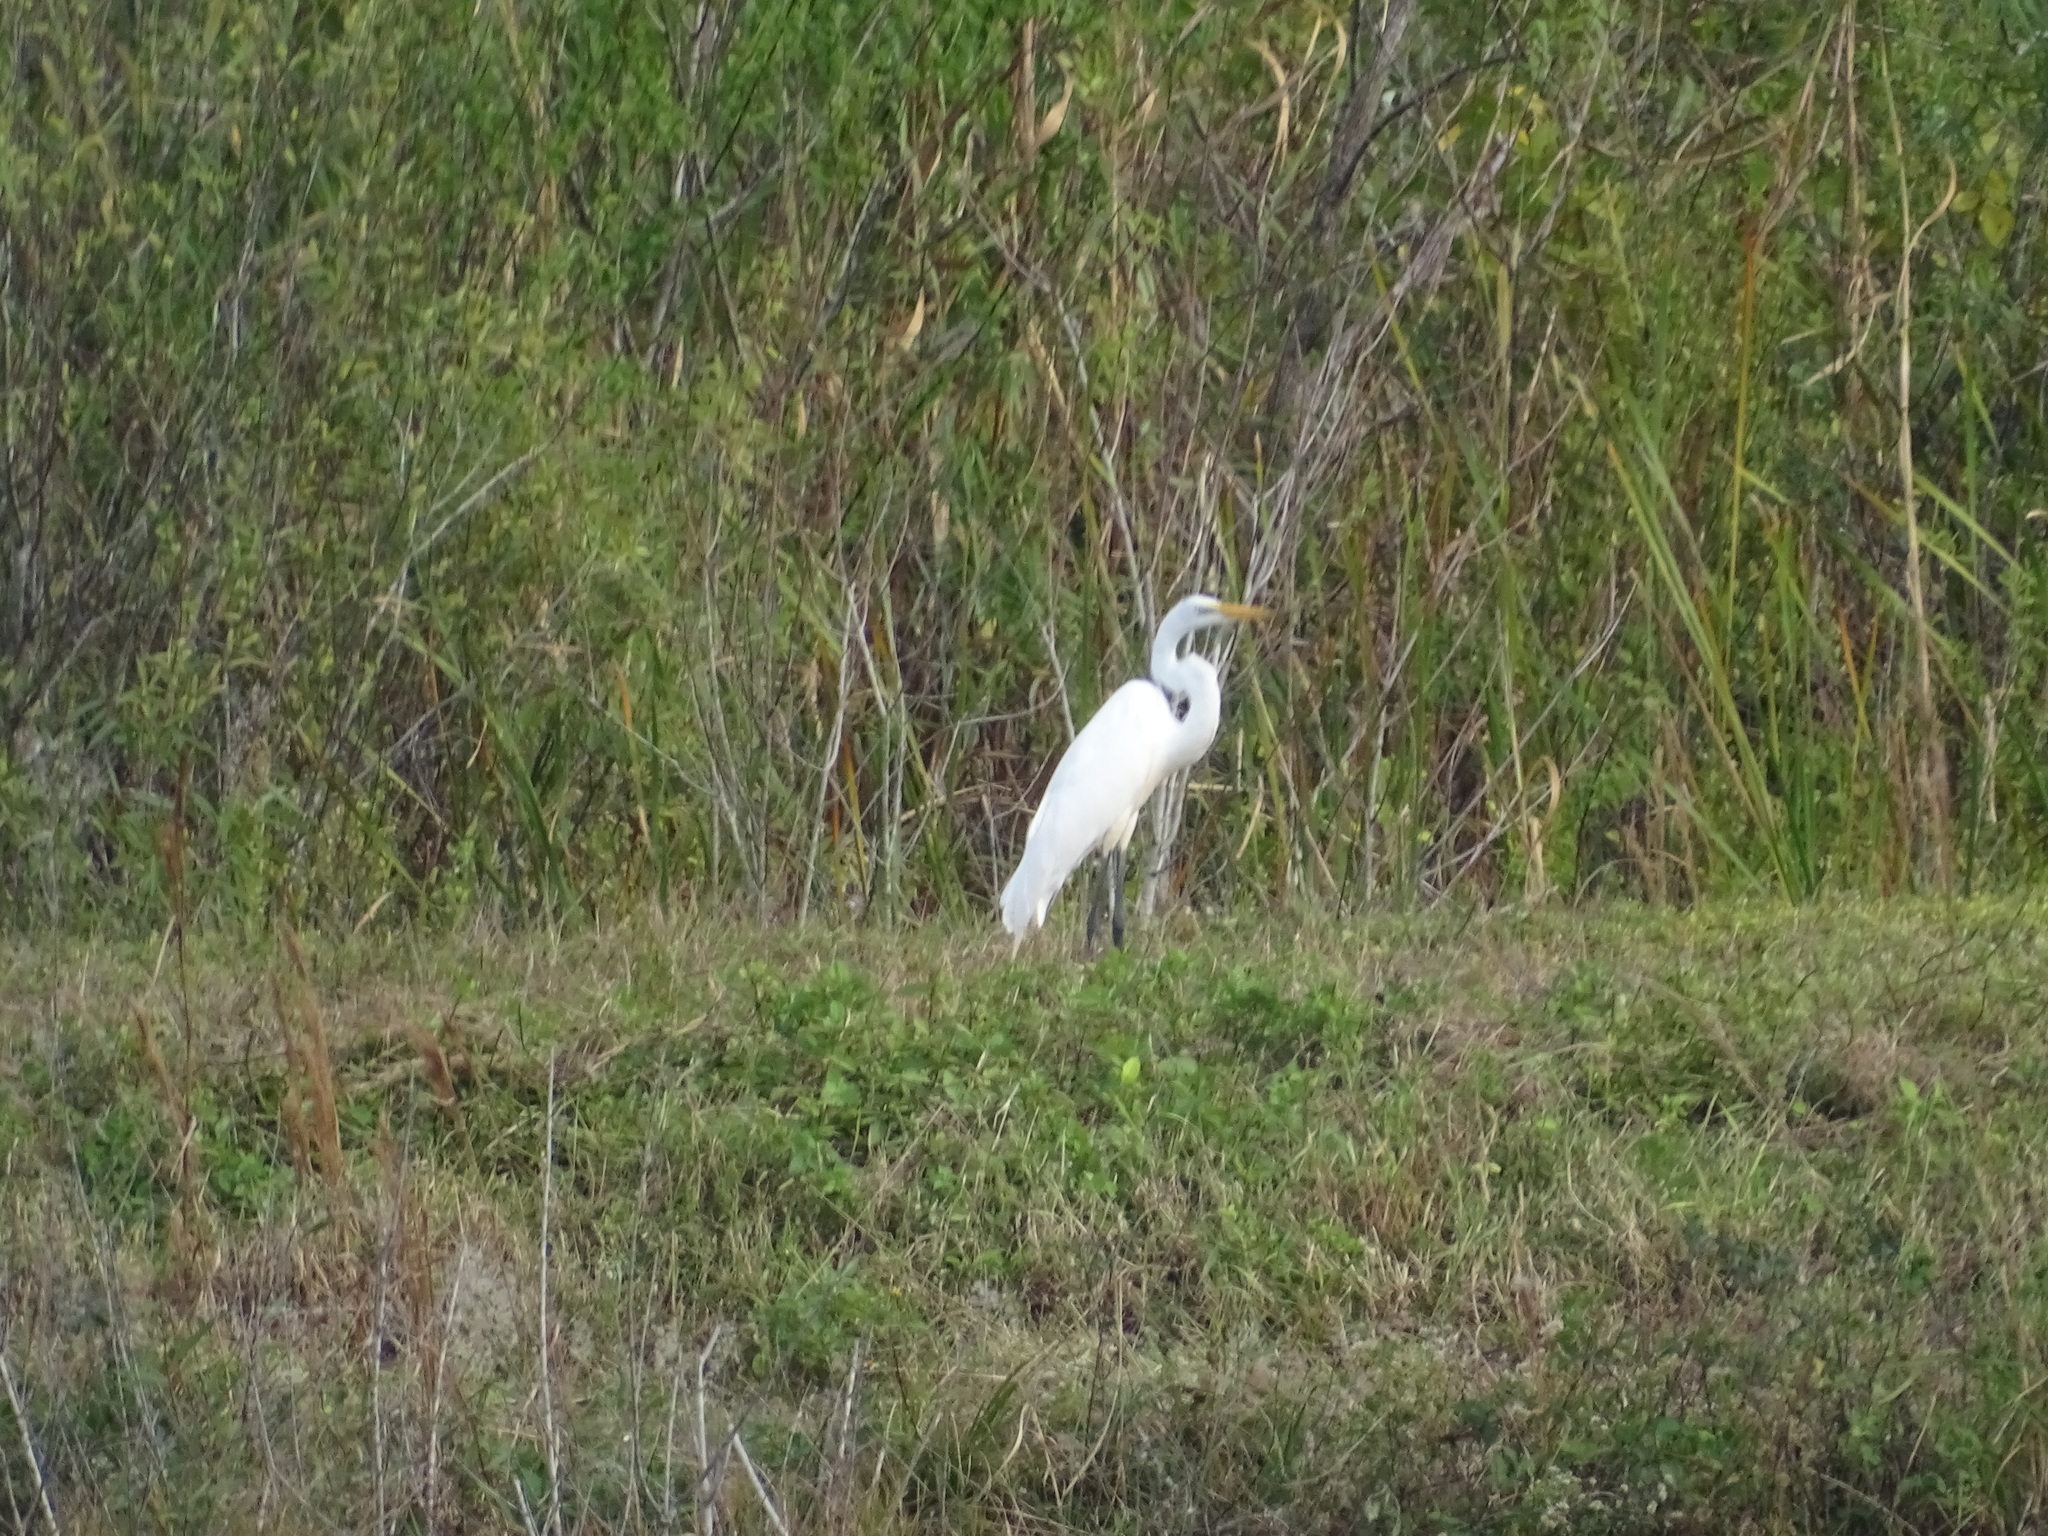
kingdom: Animalia
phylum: Chordata
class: Aves
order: Pelecaniformes
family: Ardeidae
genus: Ardea
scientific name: Ardea alba
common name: Great egret
